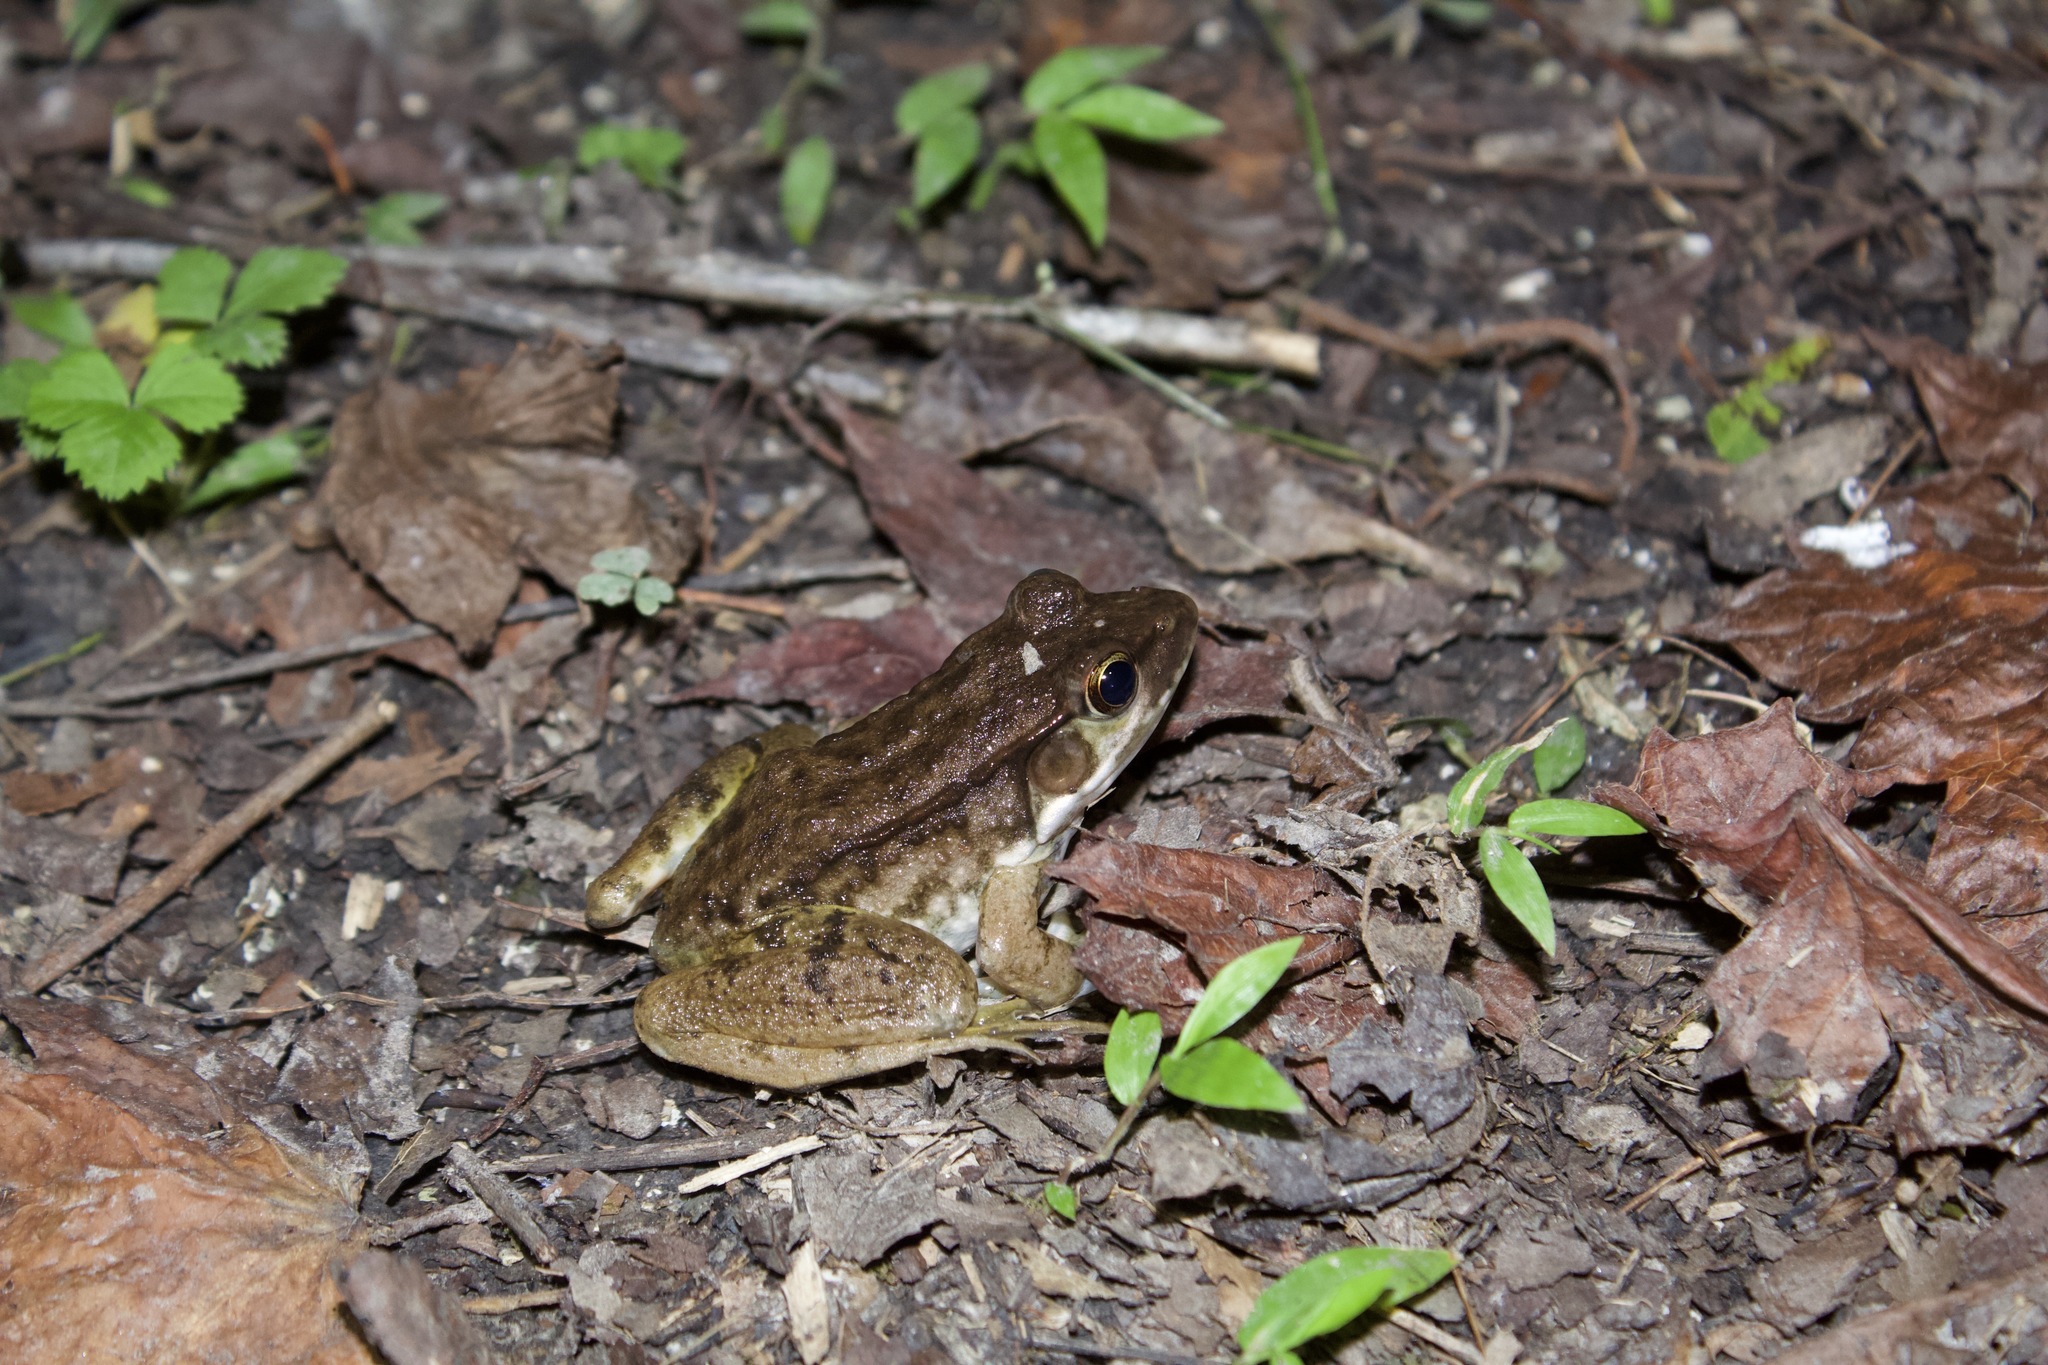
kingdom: Animalia
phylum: Chordata
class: Amphibia
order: Anura
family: Ranidae
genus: Lithobates
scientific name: Lithobates clamitans
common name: Green frog
